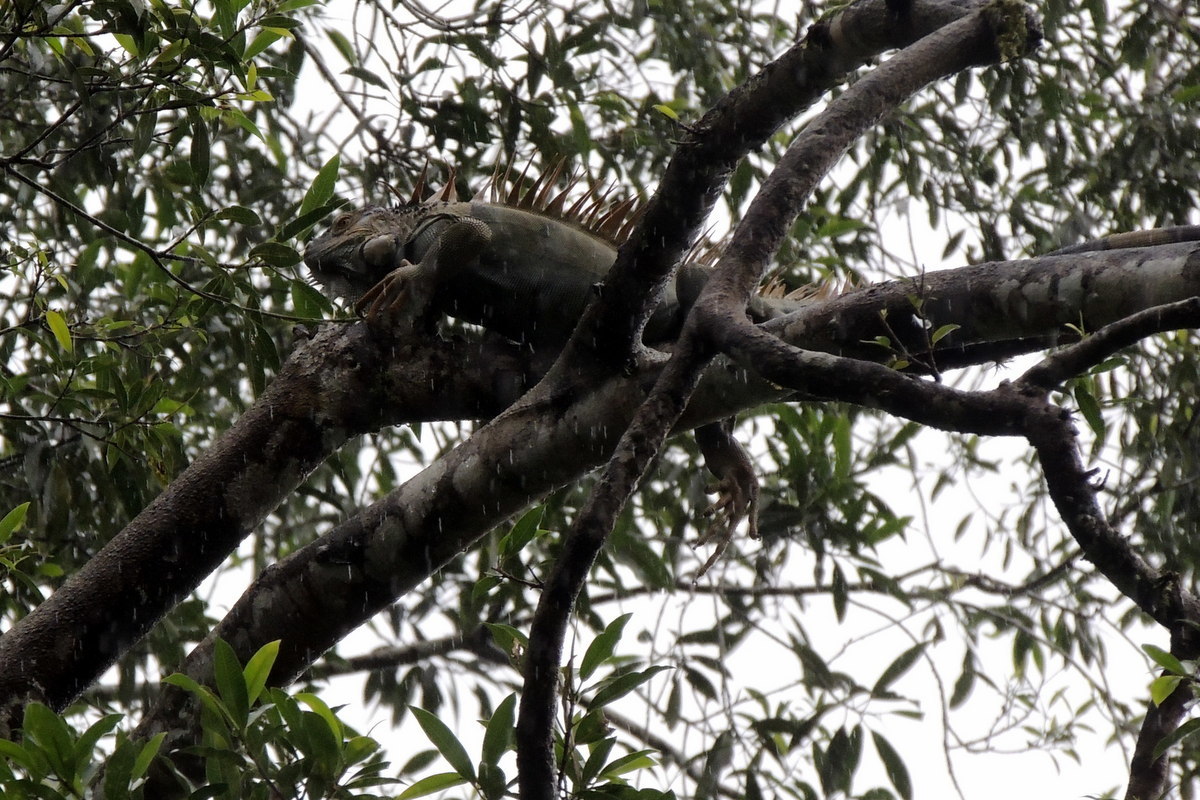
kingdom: Animalia
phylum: Chordata
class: Squamata
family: Iguanidae
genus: Iguana
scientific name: Iguana iguana
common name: Green iguana
